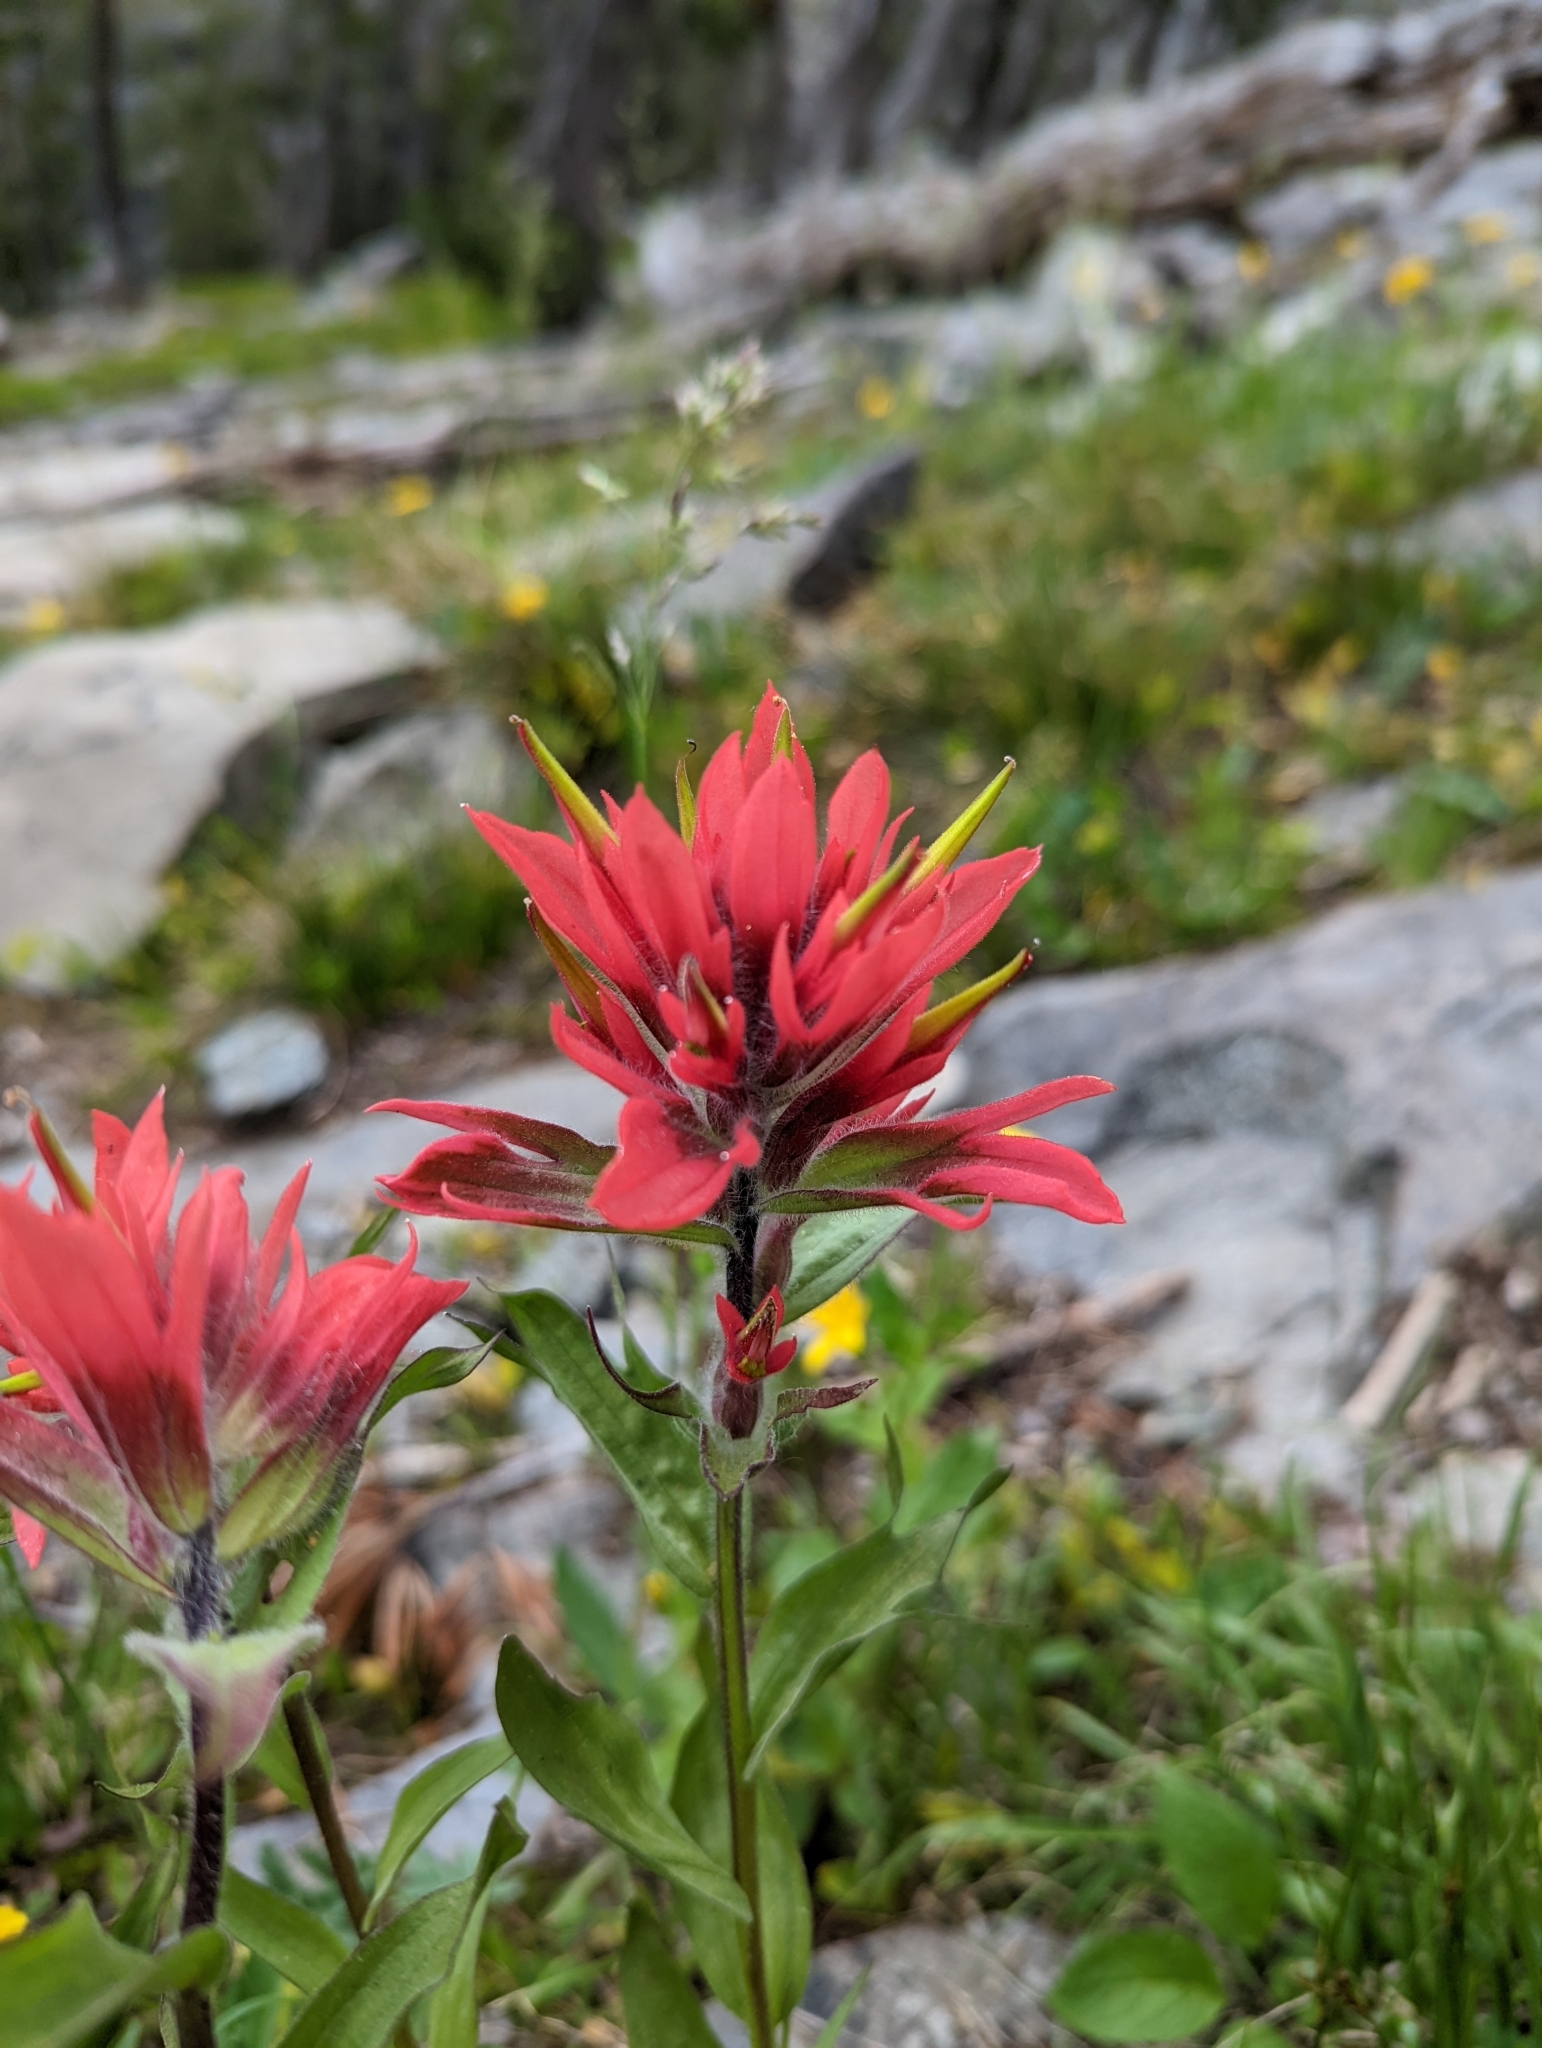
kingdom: Plantae
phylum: Tracheophyta
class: Magnoliopsida
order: Lamiales
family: Orobanchaceae
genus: Castilleja
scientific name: Castilleja rhexifolia
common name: Rocky mountain paintbrush
